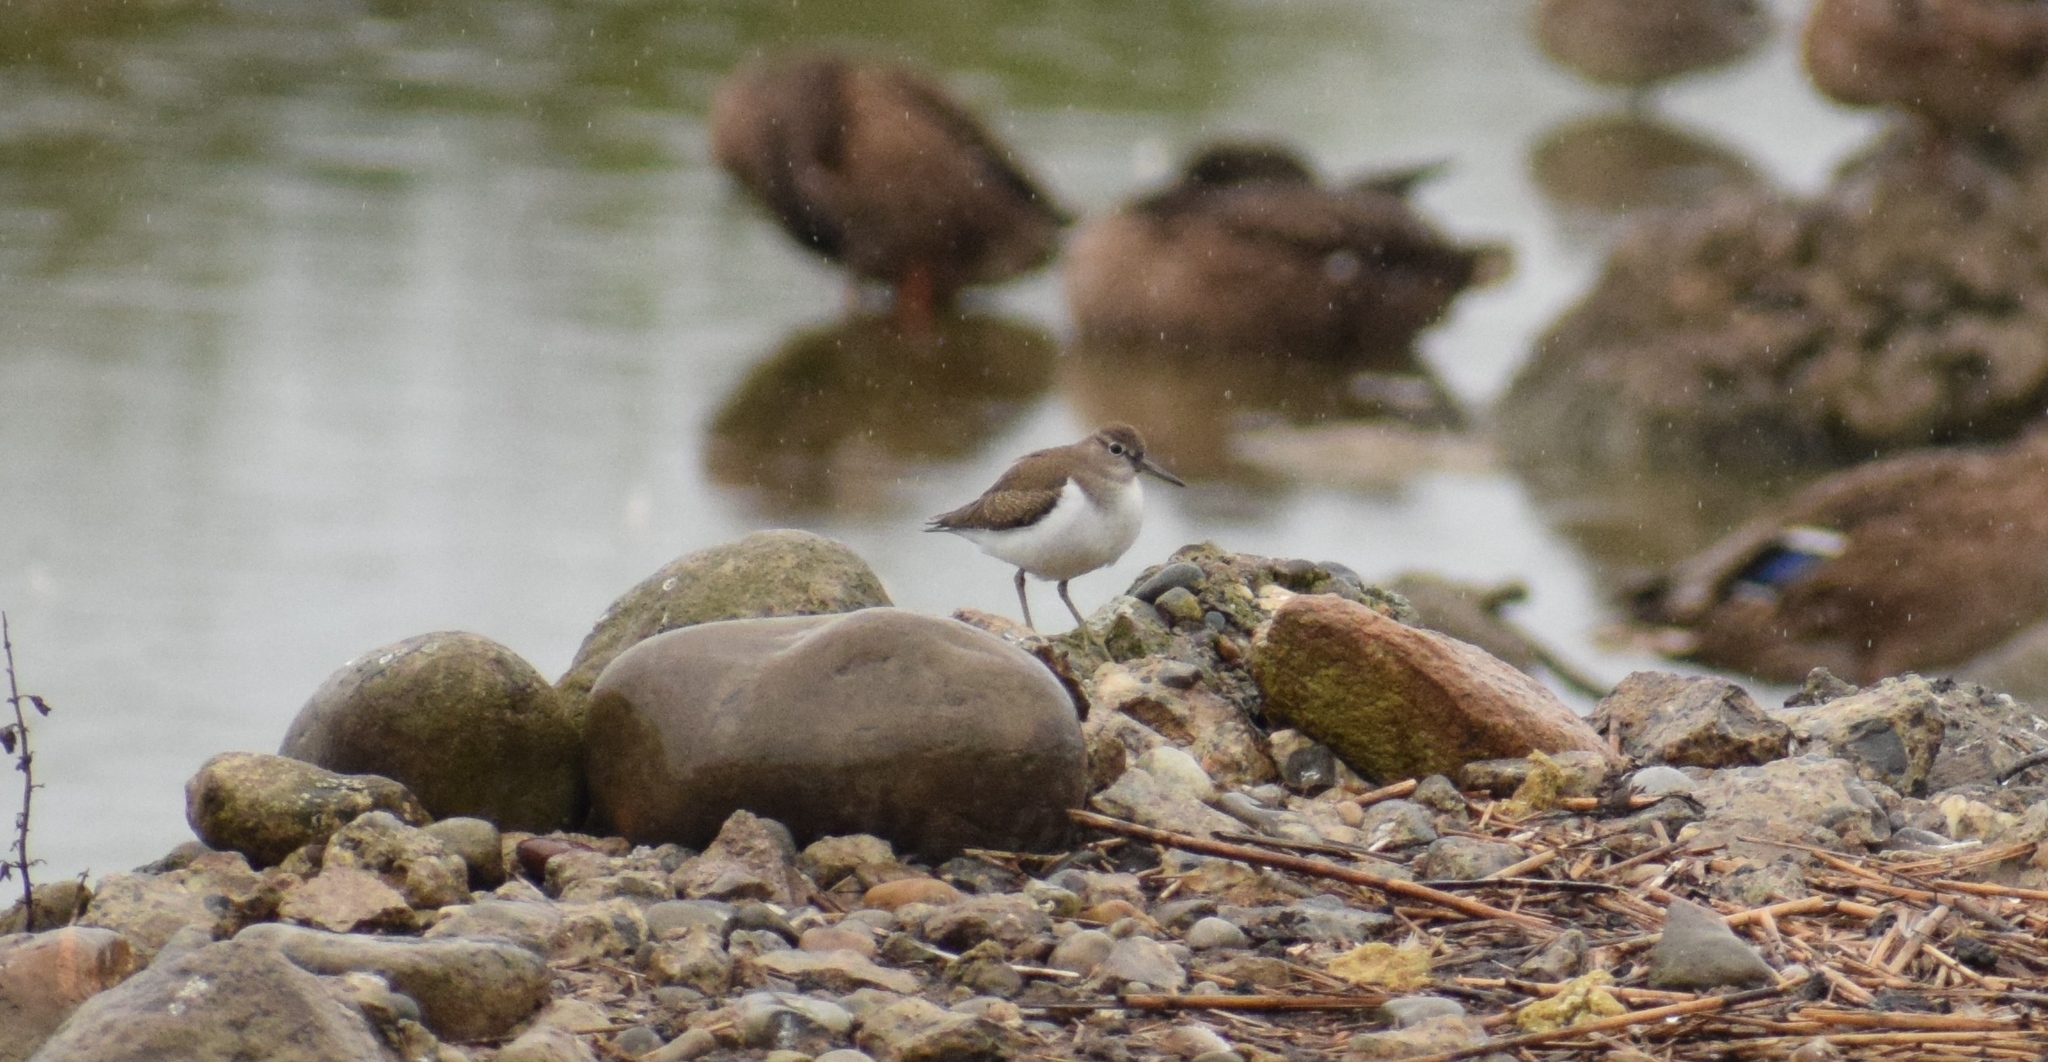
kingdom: Animalia
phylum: Chordata
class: Aves
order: Charadriiformes
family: Scolopacidae
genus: Actitis
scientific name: Actitis hypoleucos
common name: Common sandpiper
